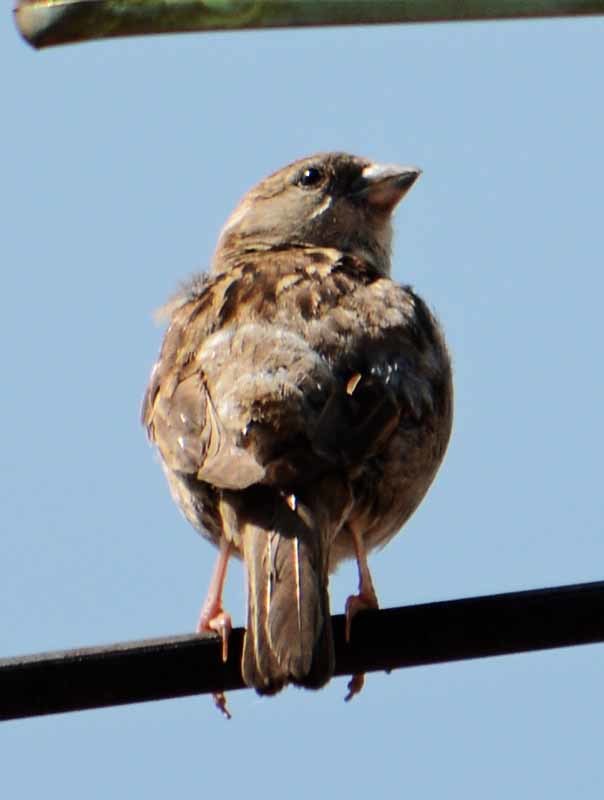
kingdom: Animalia
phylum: Chordata
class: Aves
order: Passeriformes
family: Passeridae
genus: Passer
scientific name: Passer domesticus
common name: House sparrow
